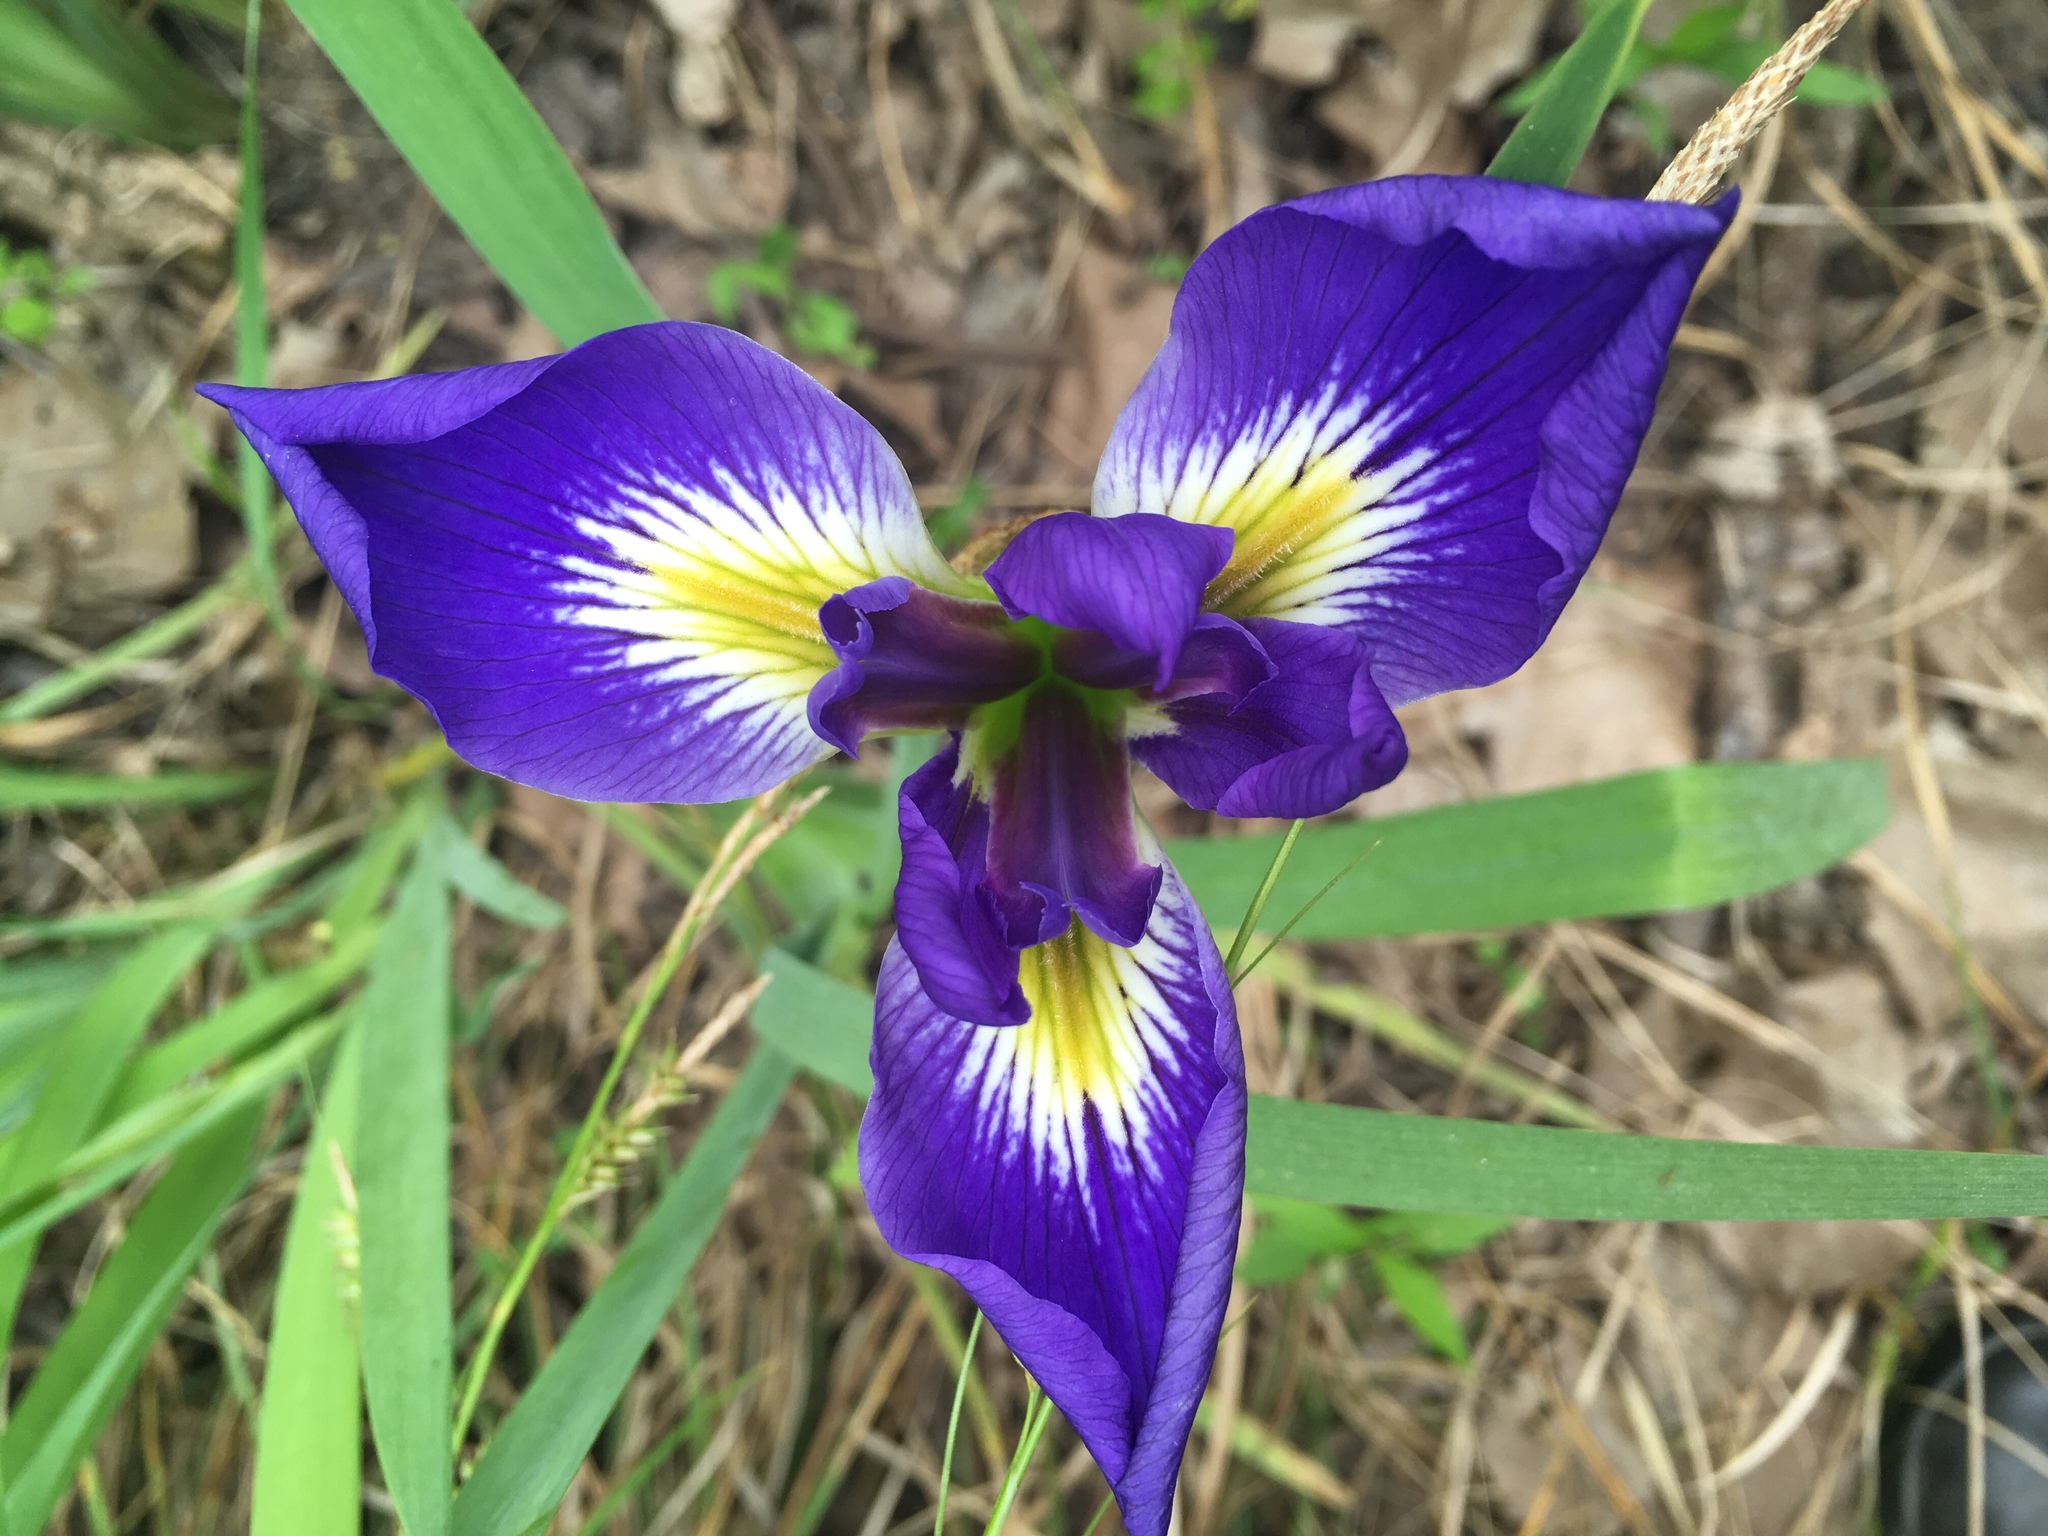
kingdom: Plantae
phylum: Tracheophyta
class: Liliopsida
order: Asparagales
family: Iridaceae
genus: Iris
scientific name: Iris brevicaulis
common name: Zigzag iris
